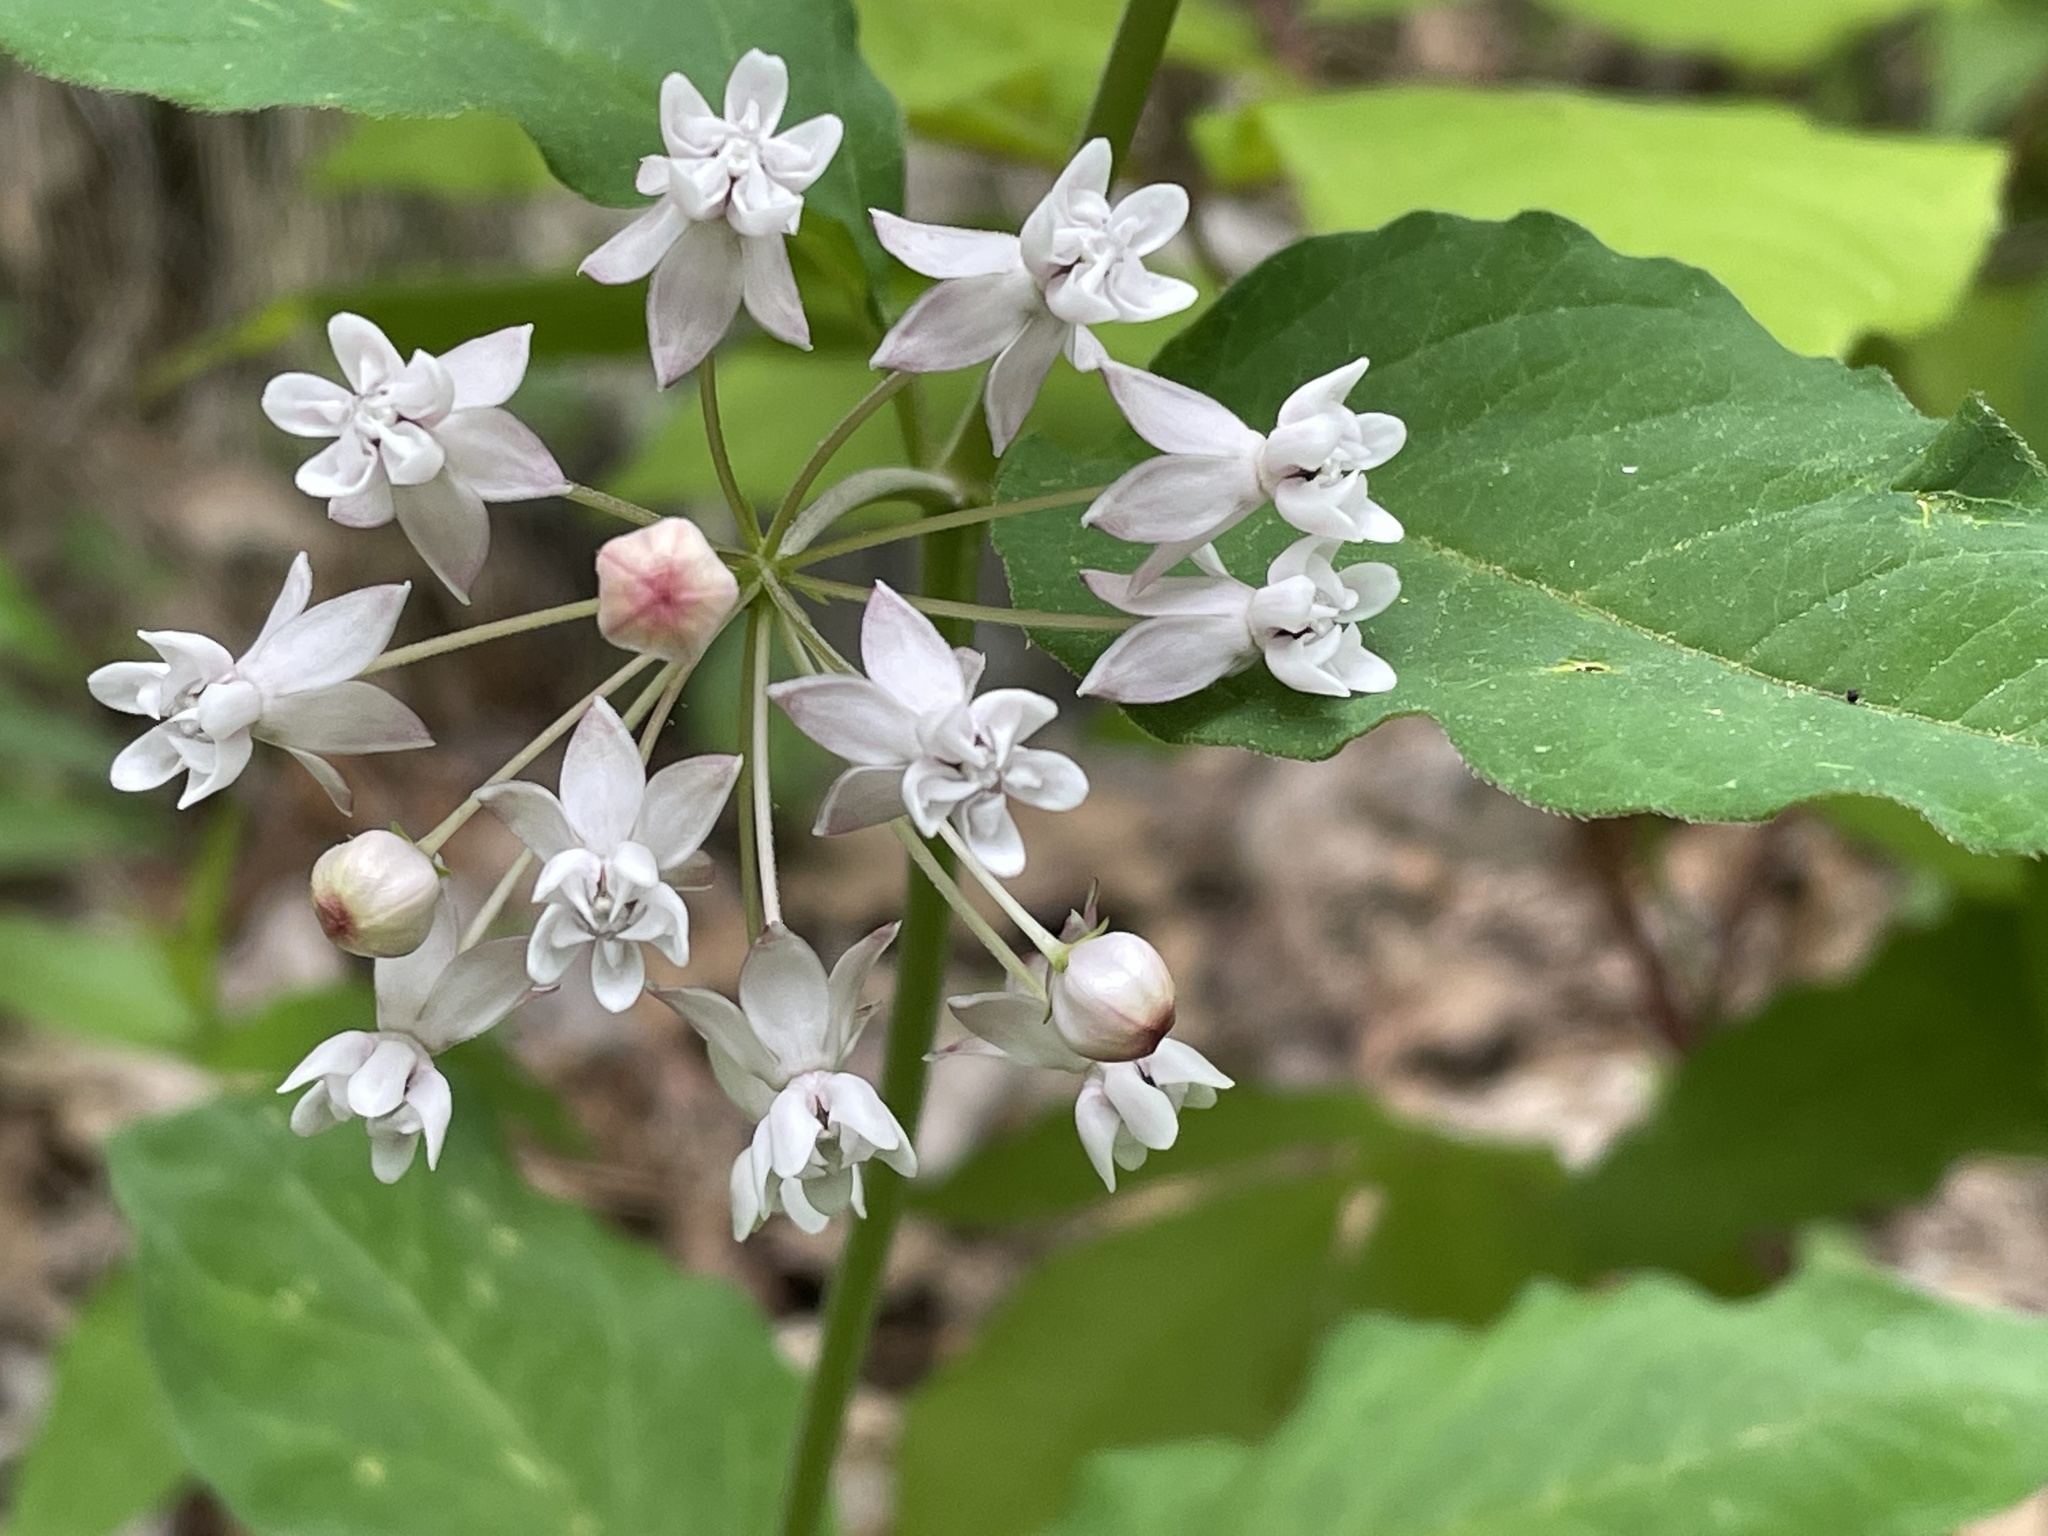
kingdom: Plantae
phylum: Tracheophyta
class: Magnoliopsida
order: Gentianales
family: Apocynaceae
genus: Asclepias
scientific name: Asclepias quadrifolia
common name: Whorled milkweed
